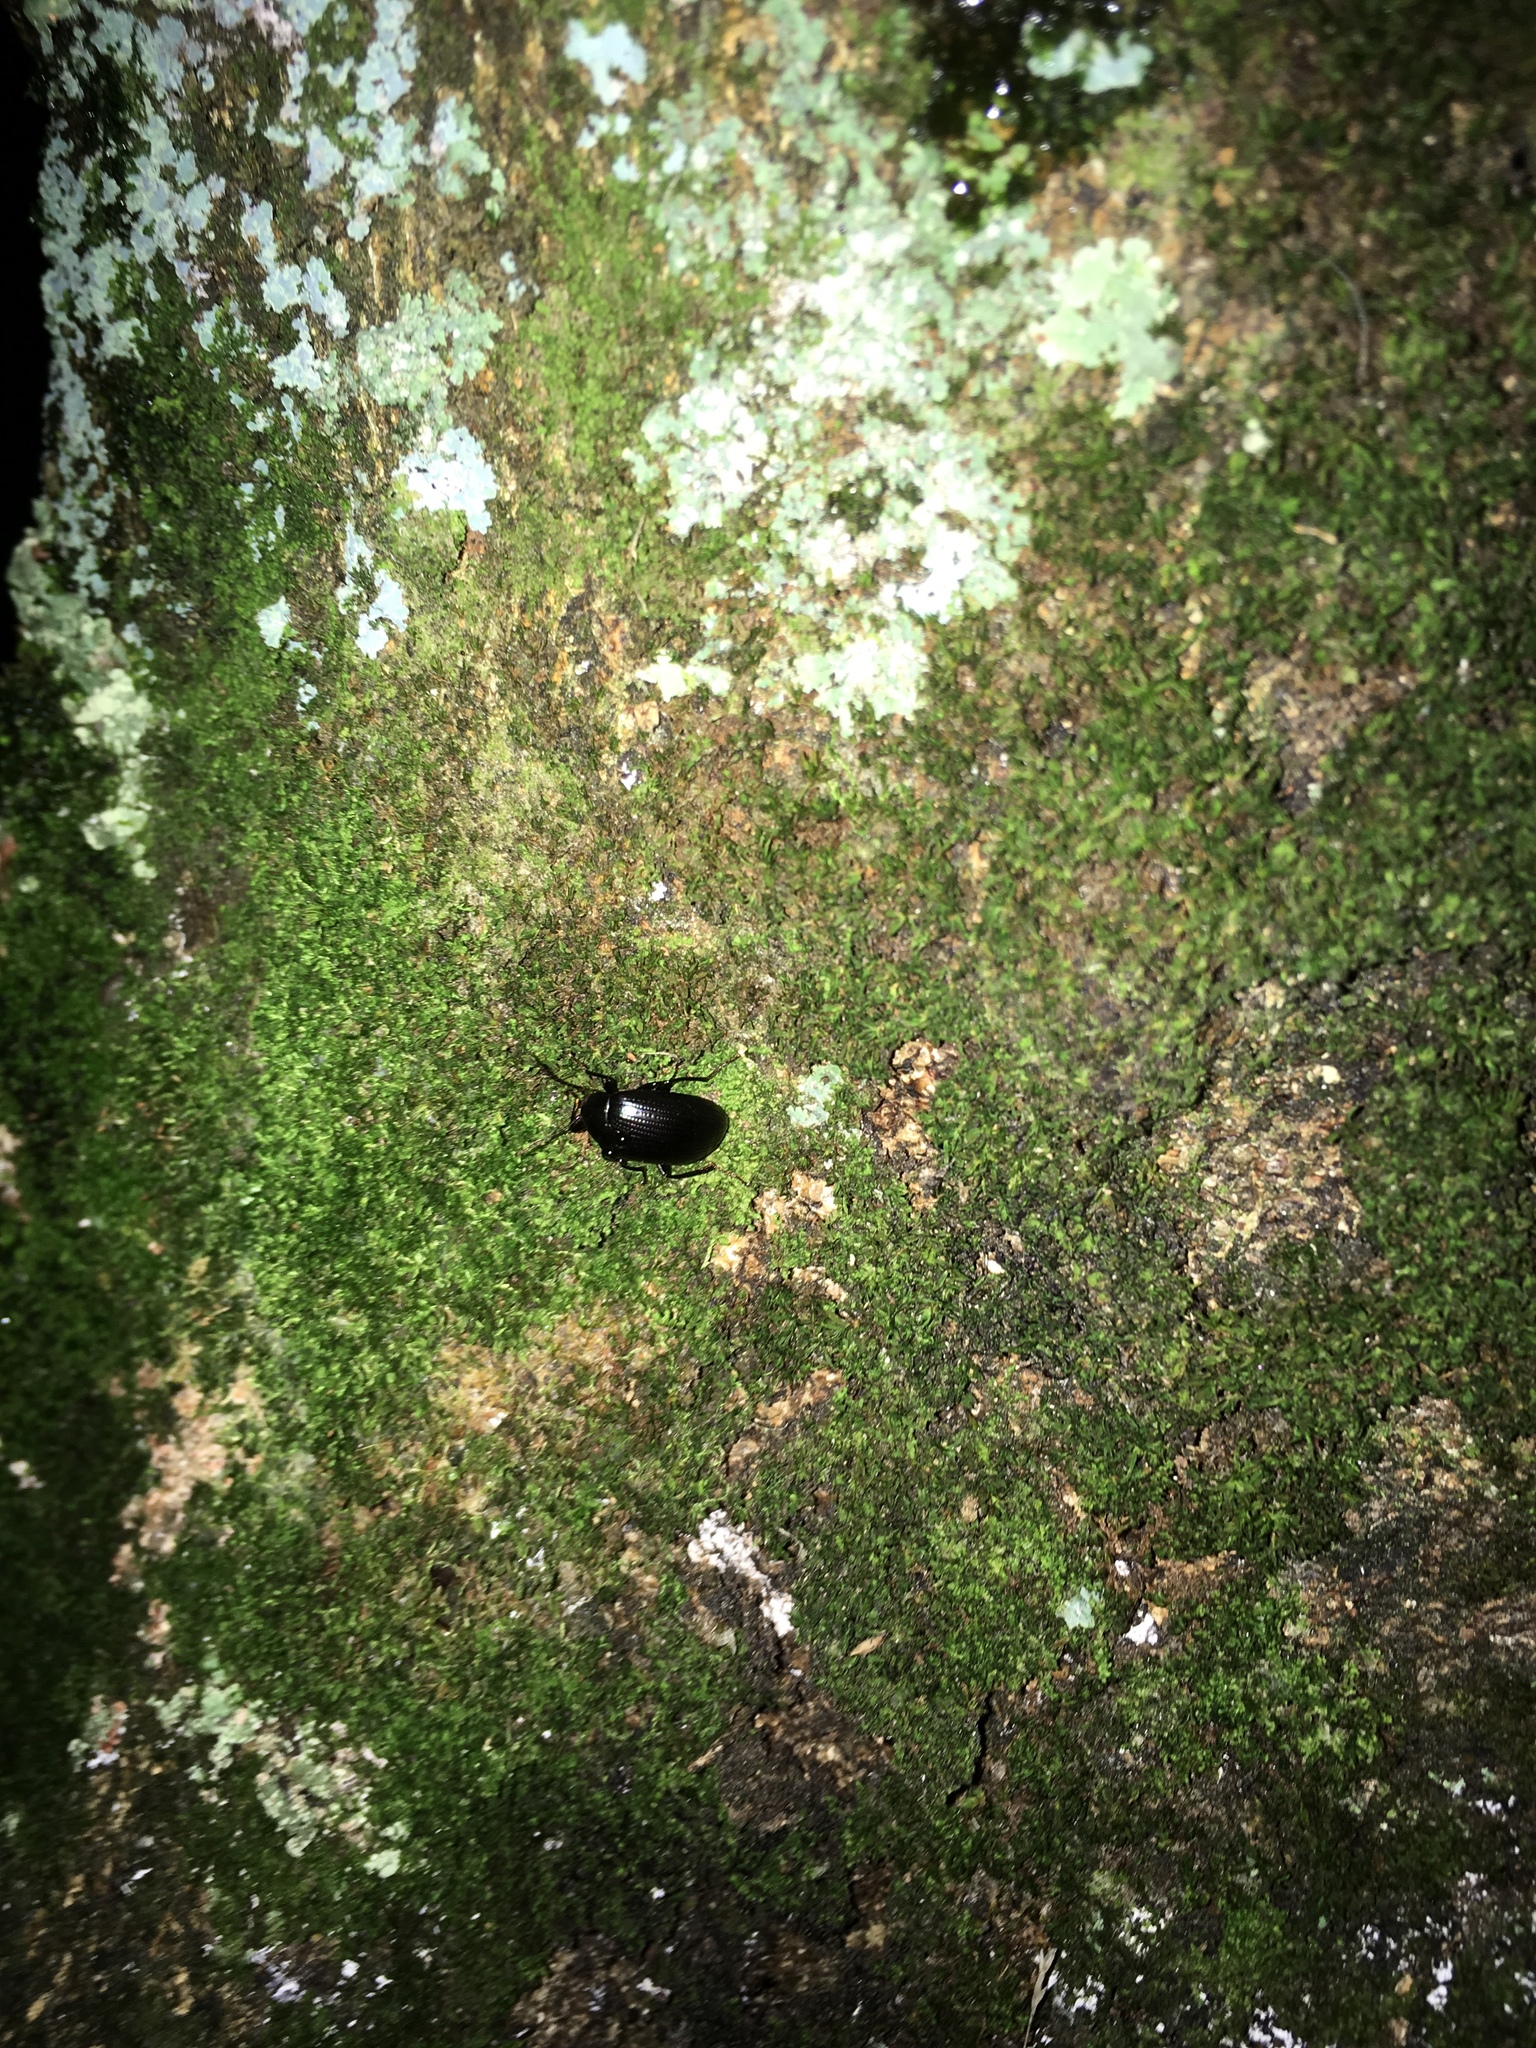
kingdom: Animalia
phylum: Arthropoda
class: Insecta
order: Coleoptera
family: Tenebrionidae
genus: Amarygmus
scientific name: Amarygmus
